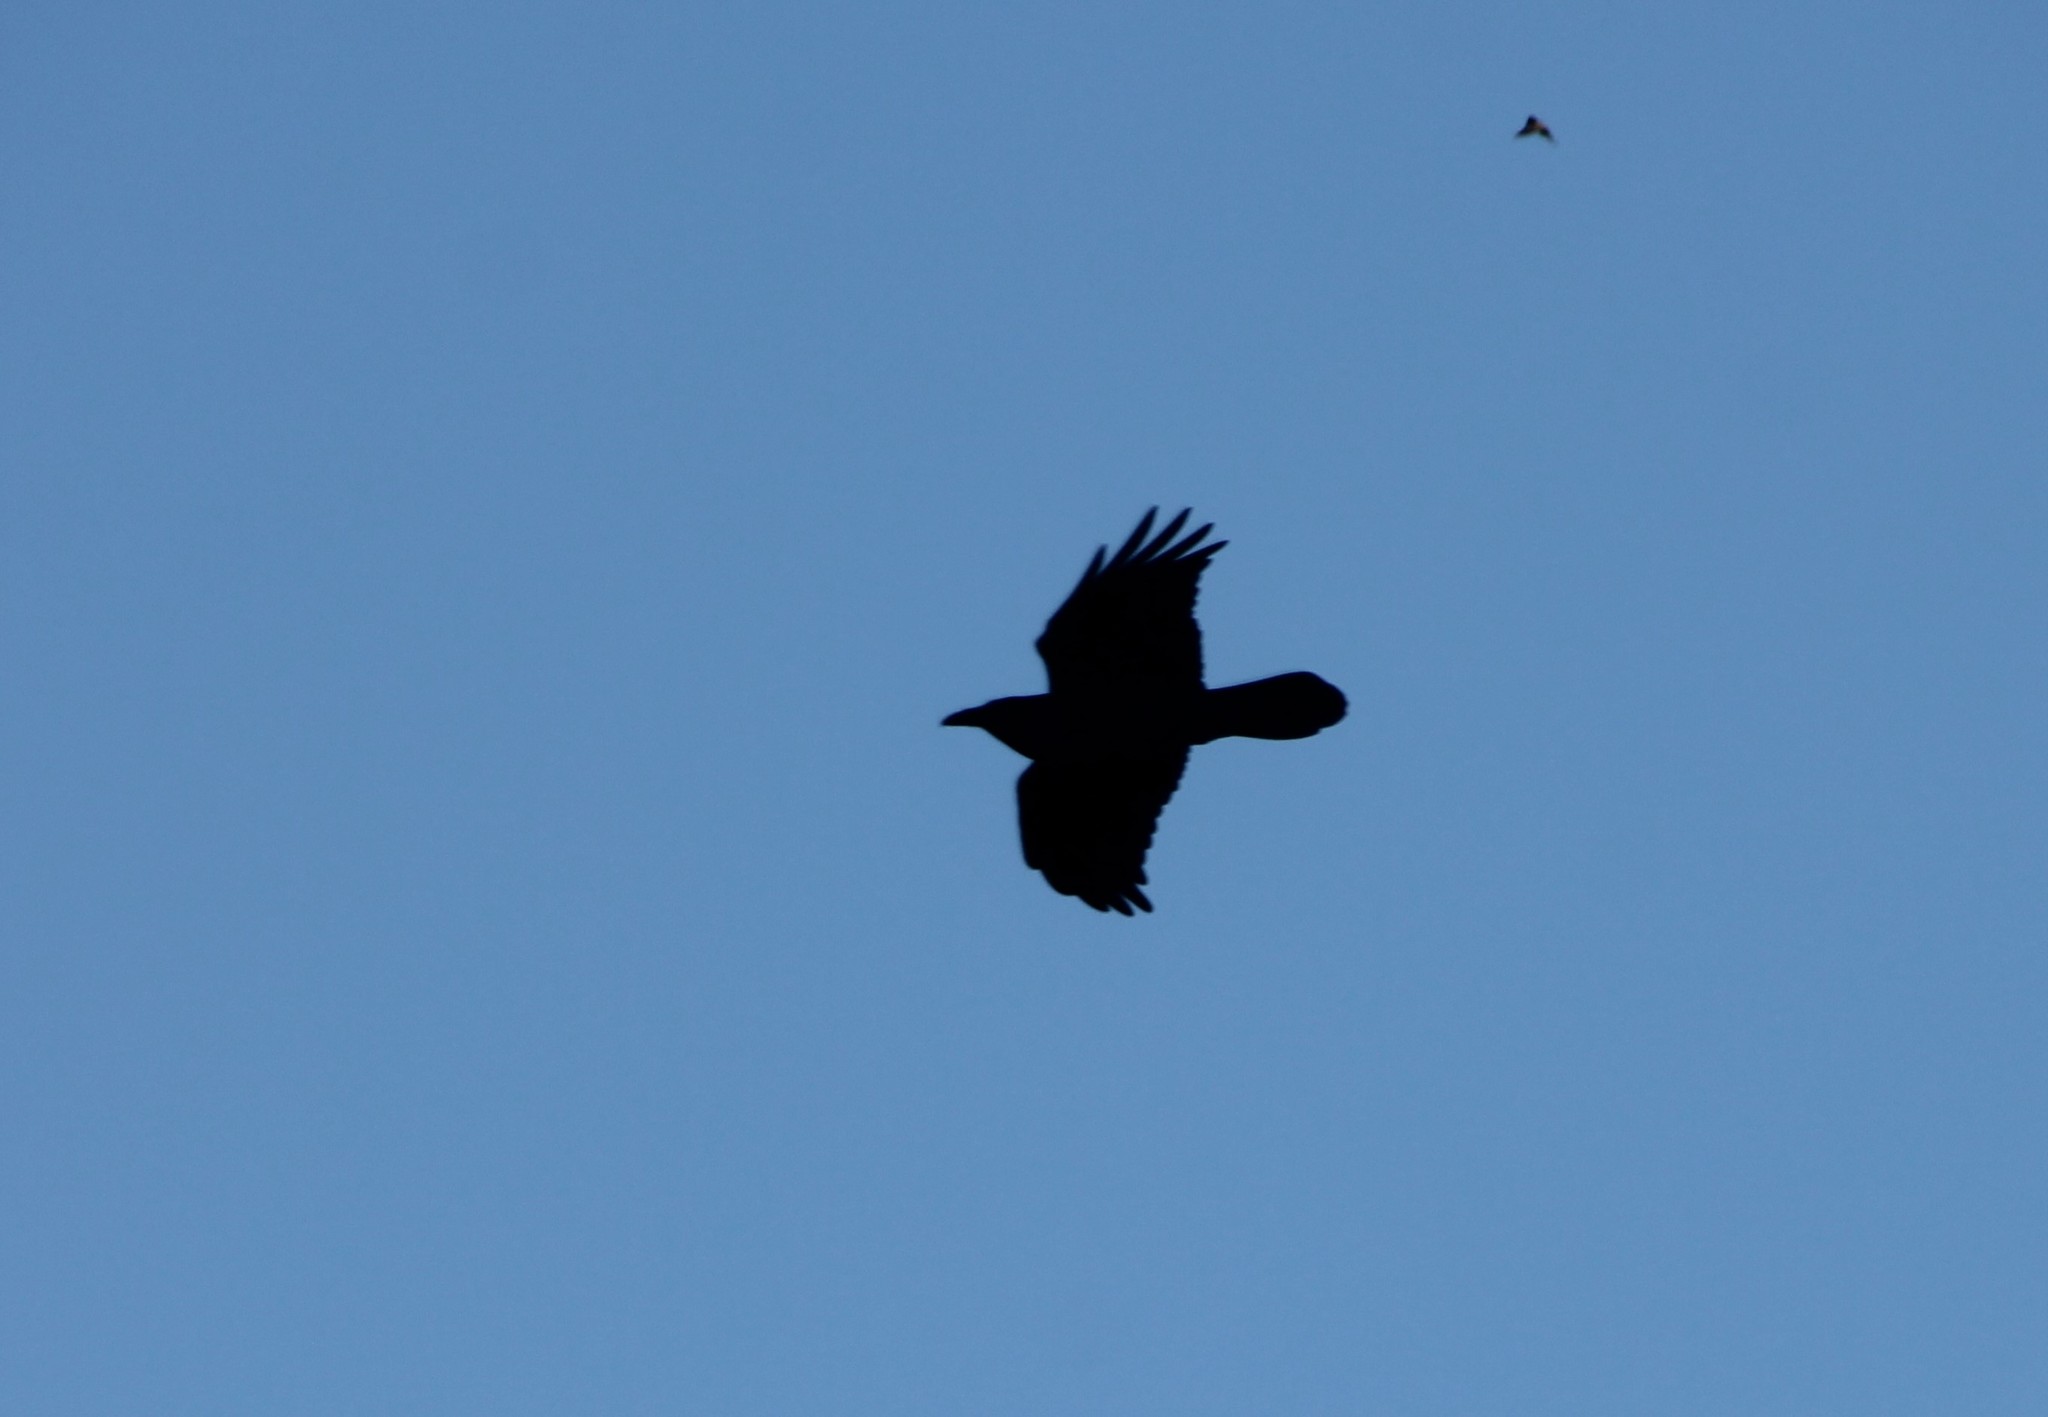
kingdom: Animalia
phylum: Chordata
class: Aves
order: Passeriformes
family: Corvidae
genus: Corvus
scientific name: Corvus corax
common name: Common raven
